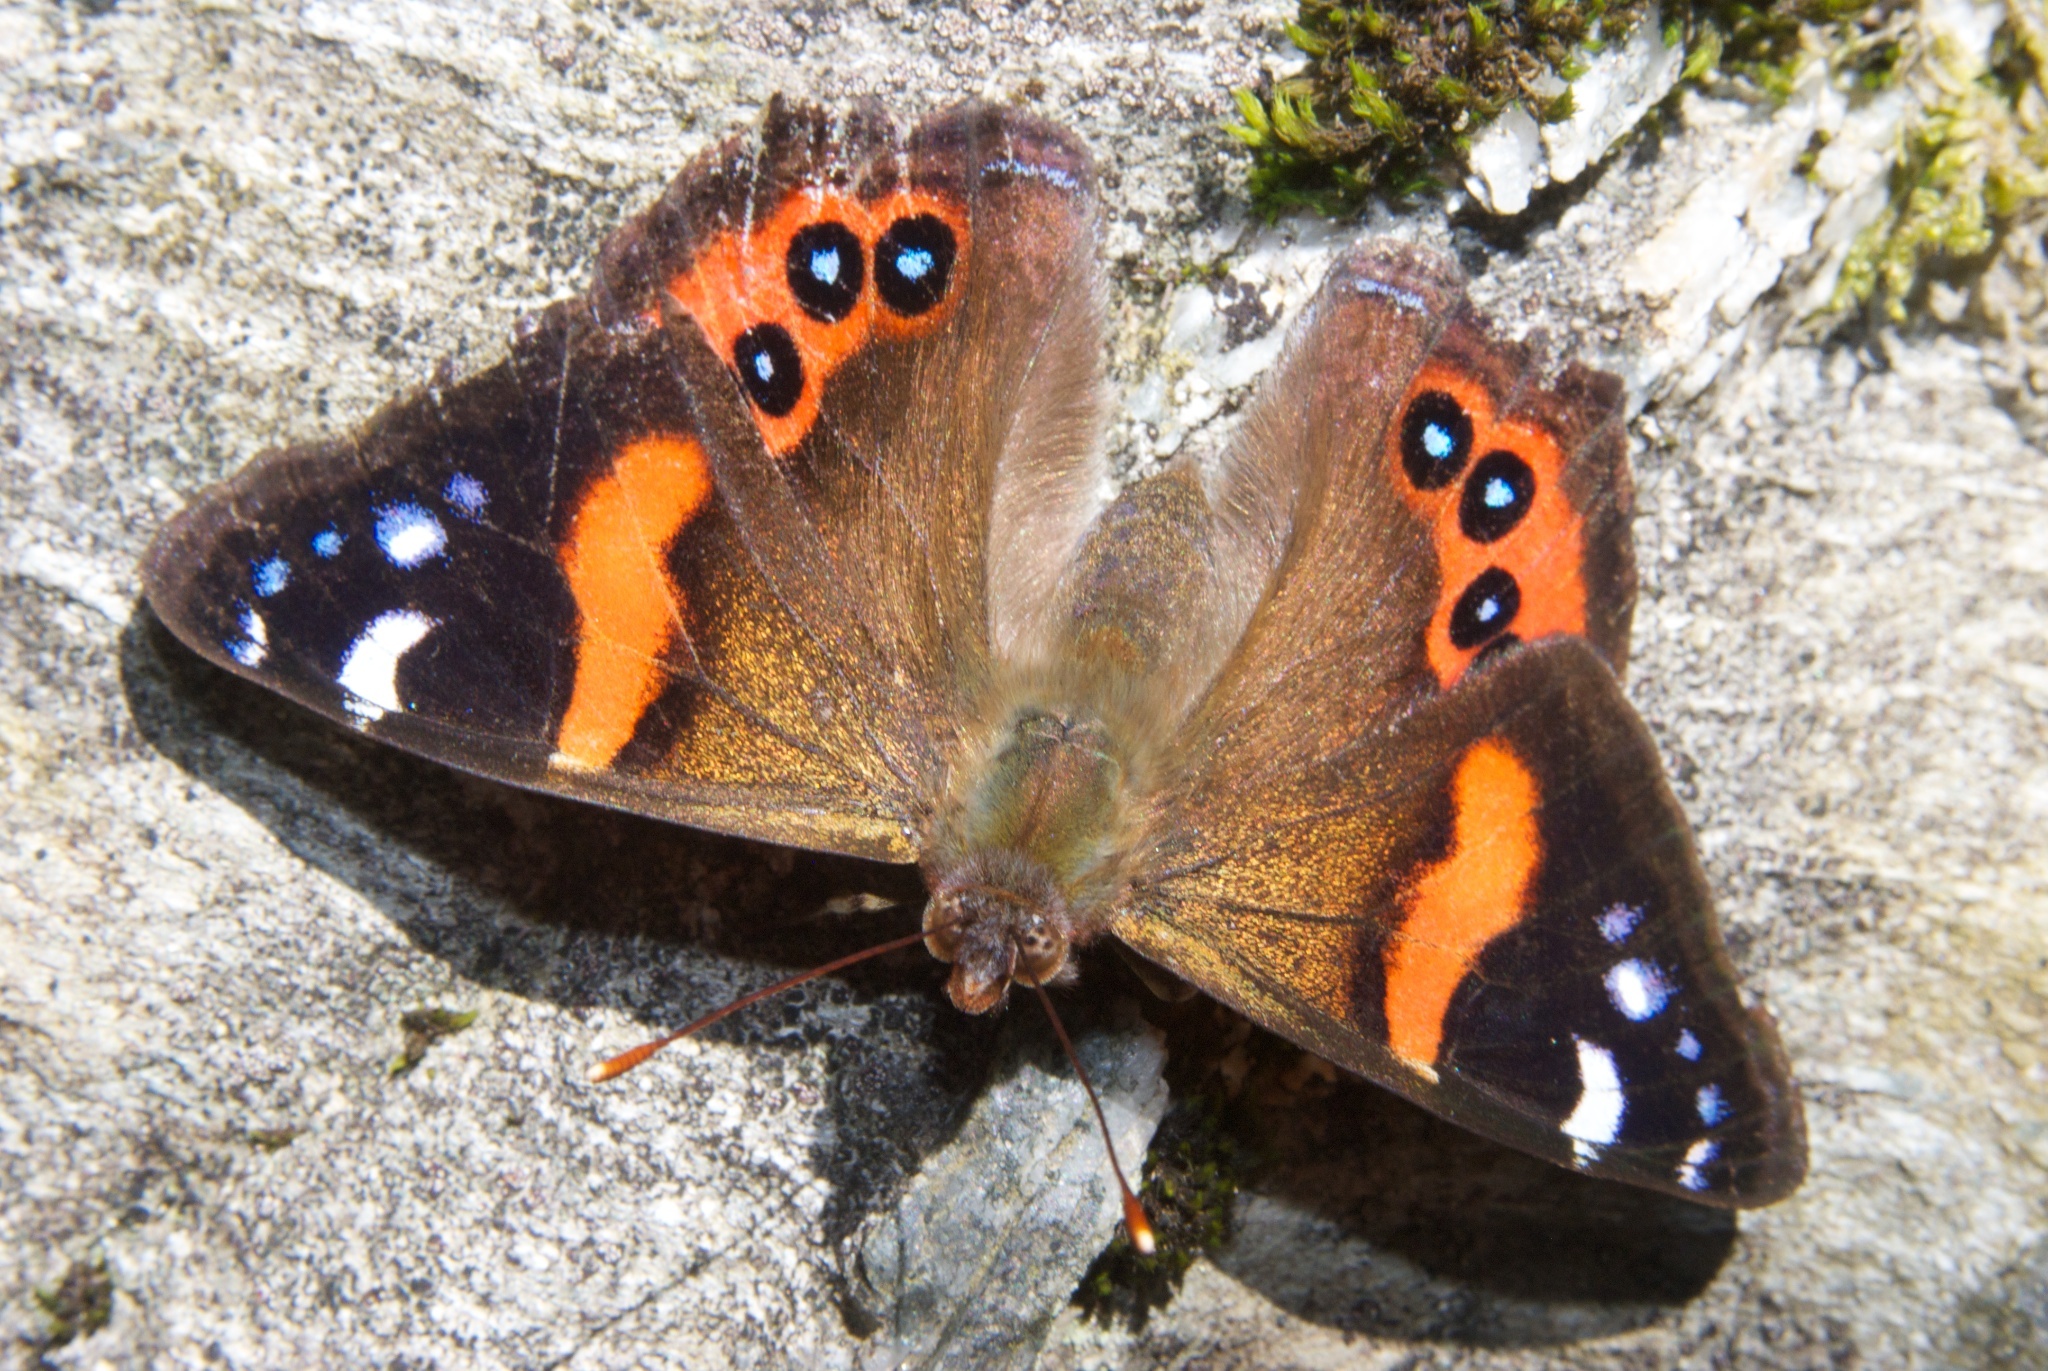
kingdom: Animalia
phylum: Arthropoda
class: Insecta
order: Lepidoptera
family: Nymphalidae
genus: Vanessa
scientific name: Vanessa gonerilla
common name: New zealand red admiral
